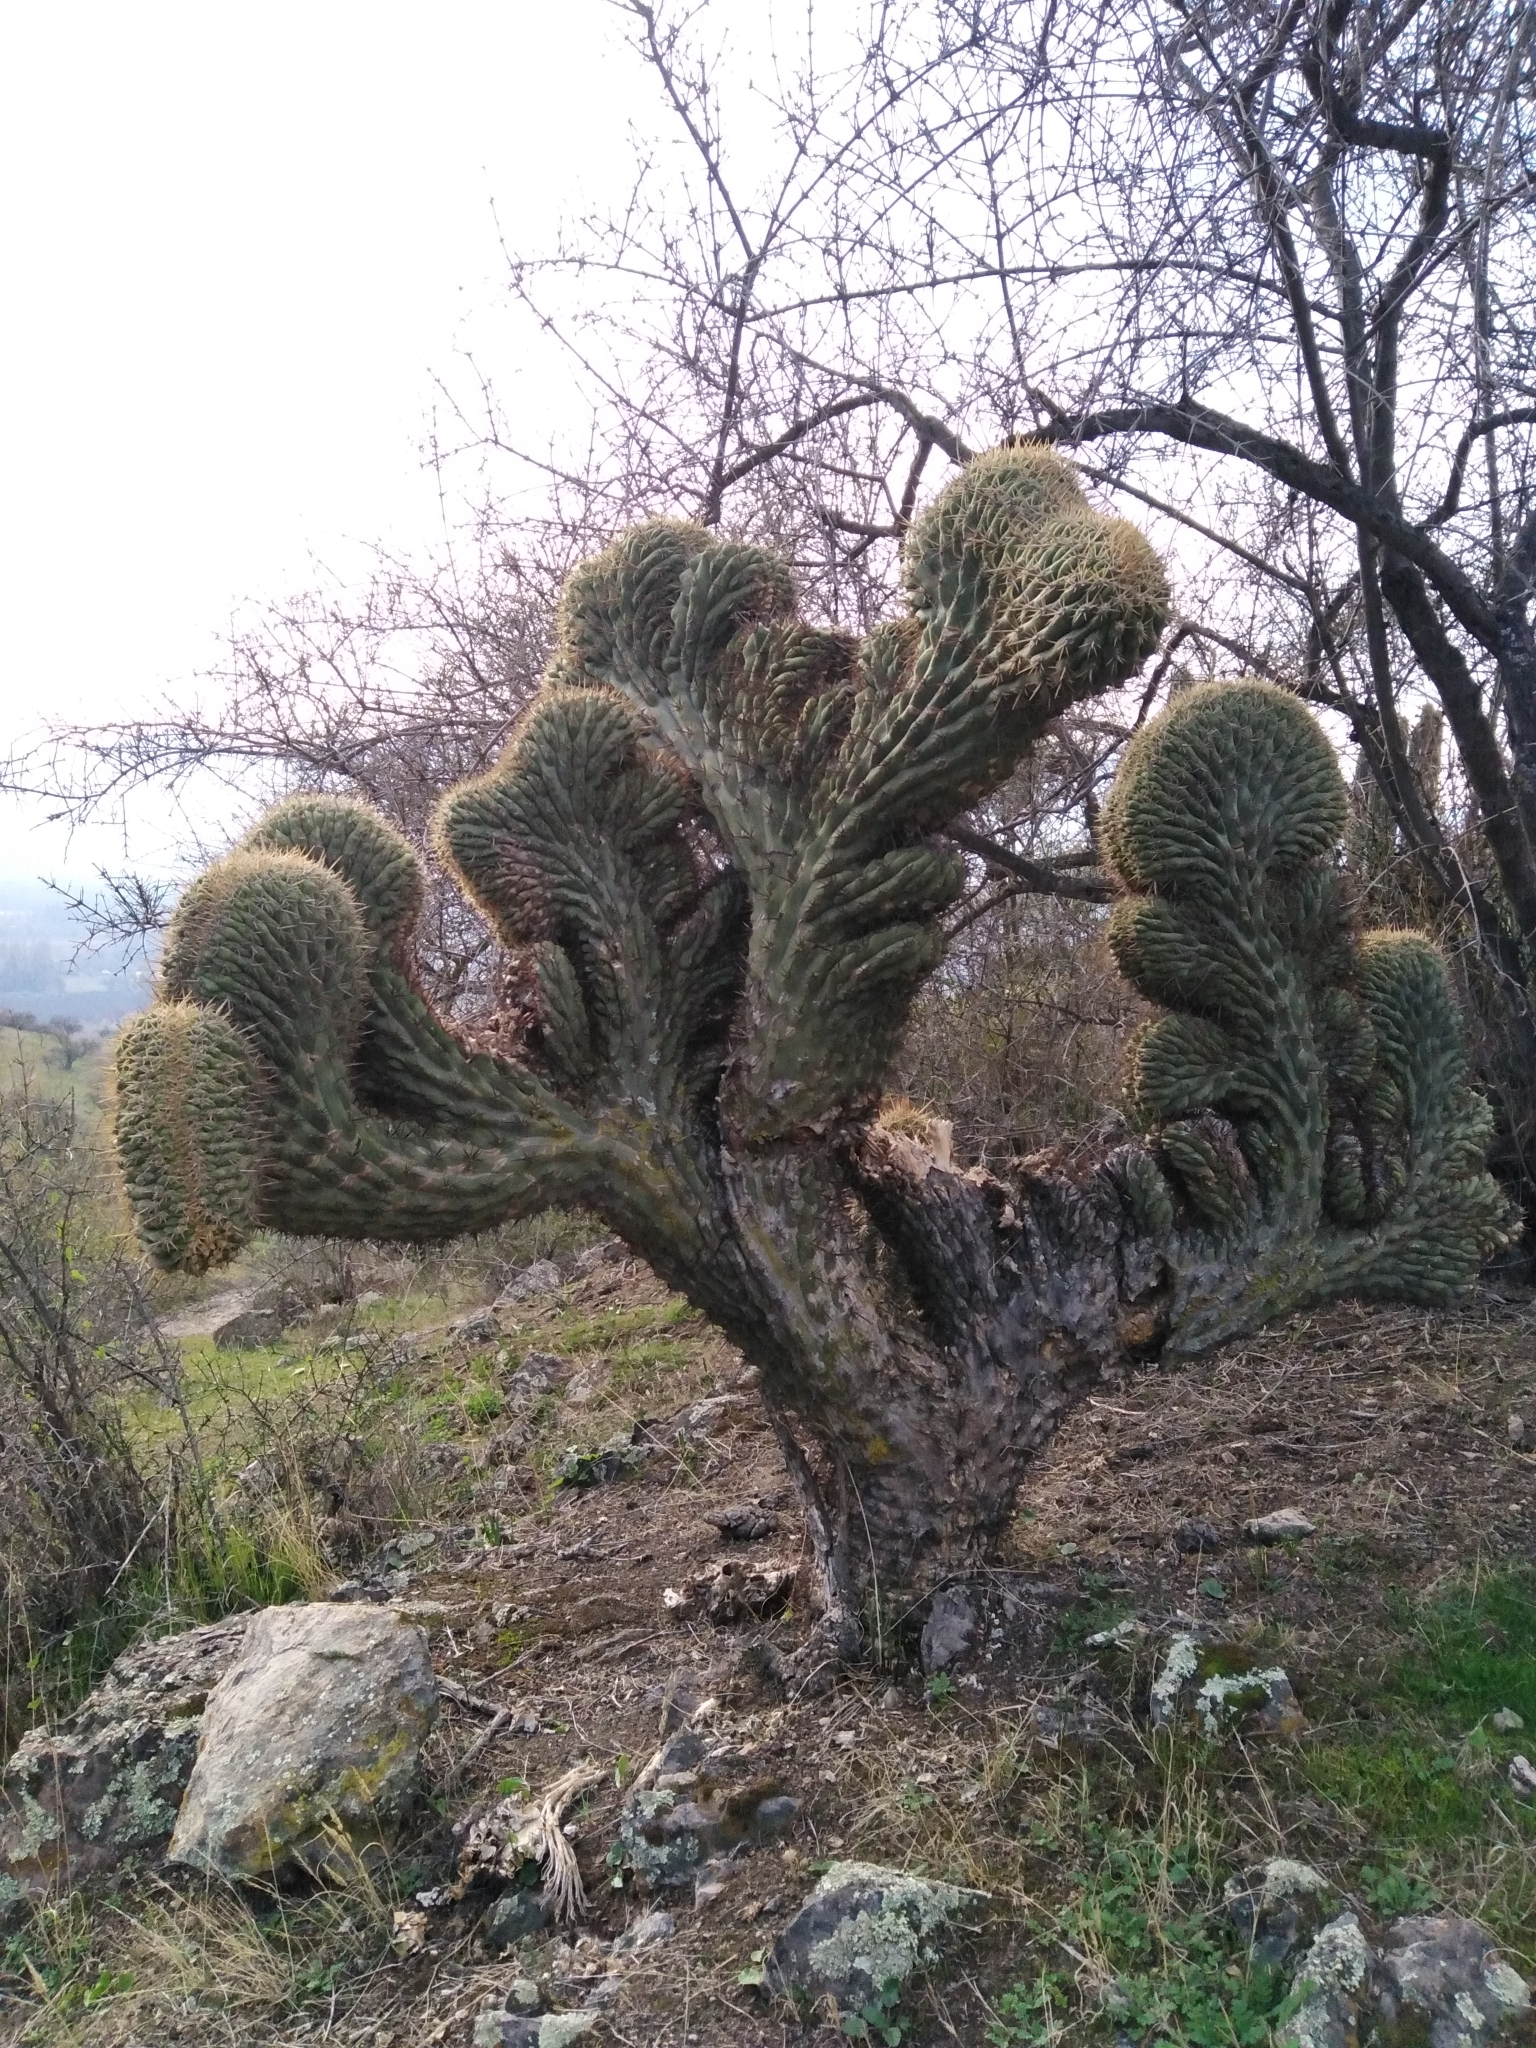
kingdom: Plantae
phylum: Tracheophyta
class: Magnoliopsida
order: Caryophyllales
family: Cactaceae
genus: Leucostele
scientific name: Leucostele chiloensis
